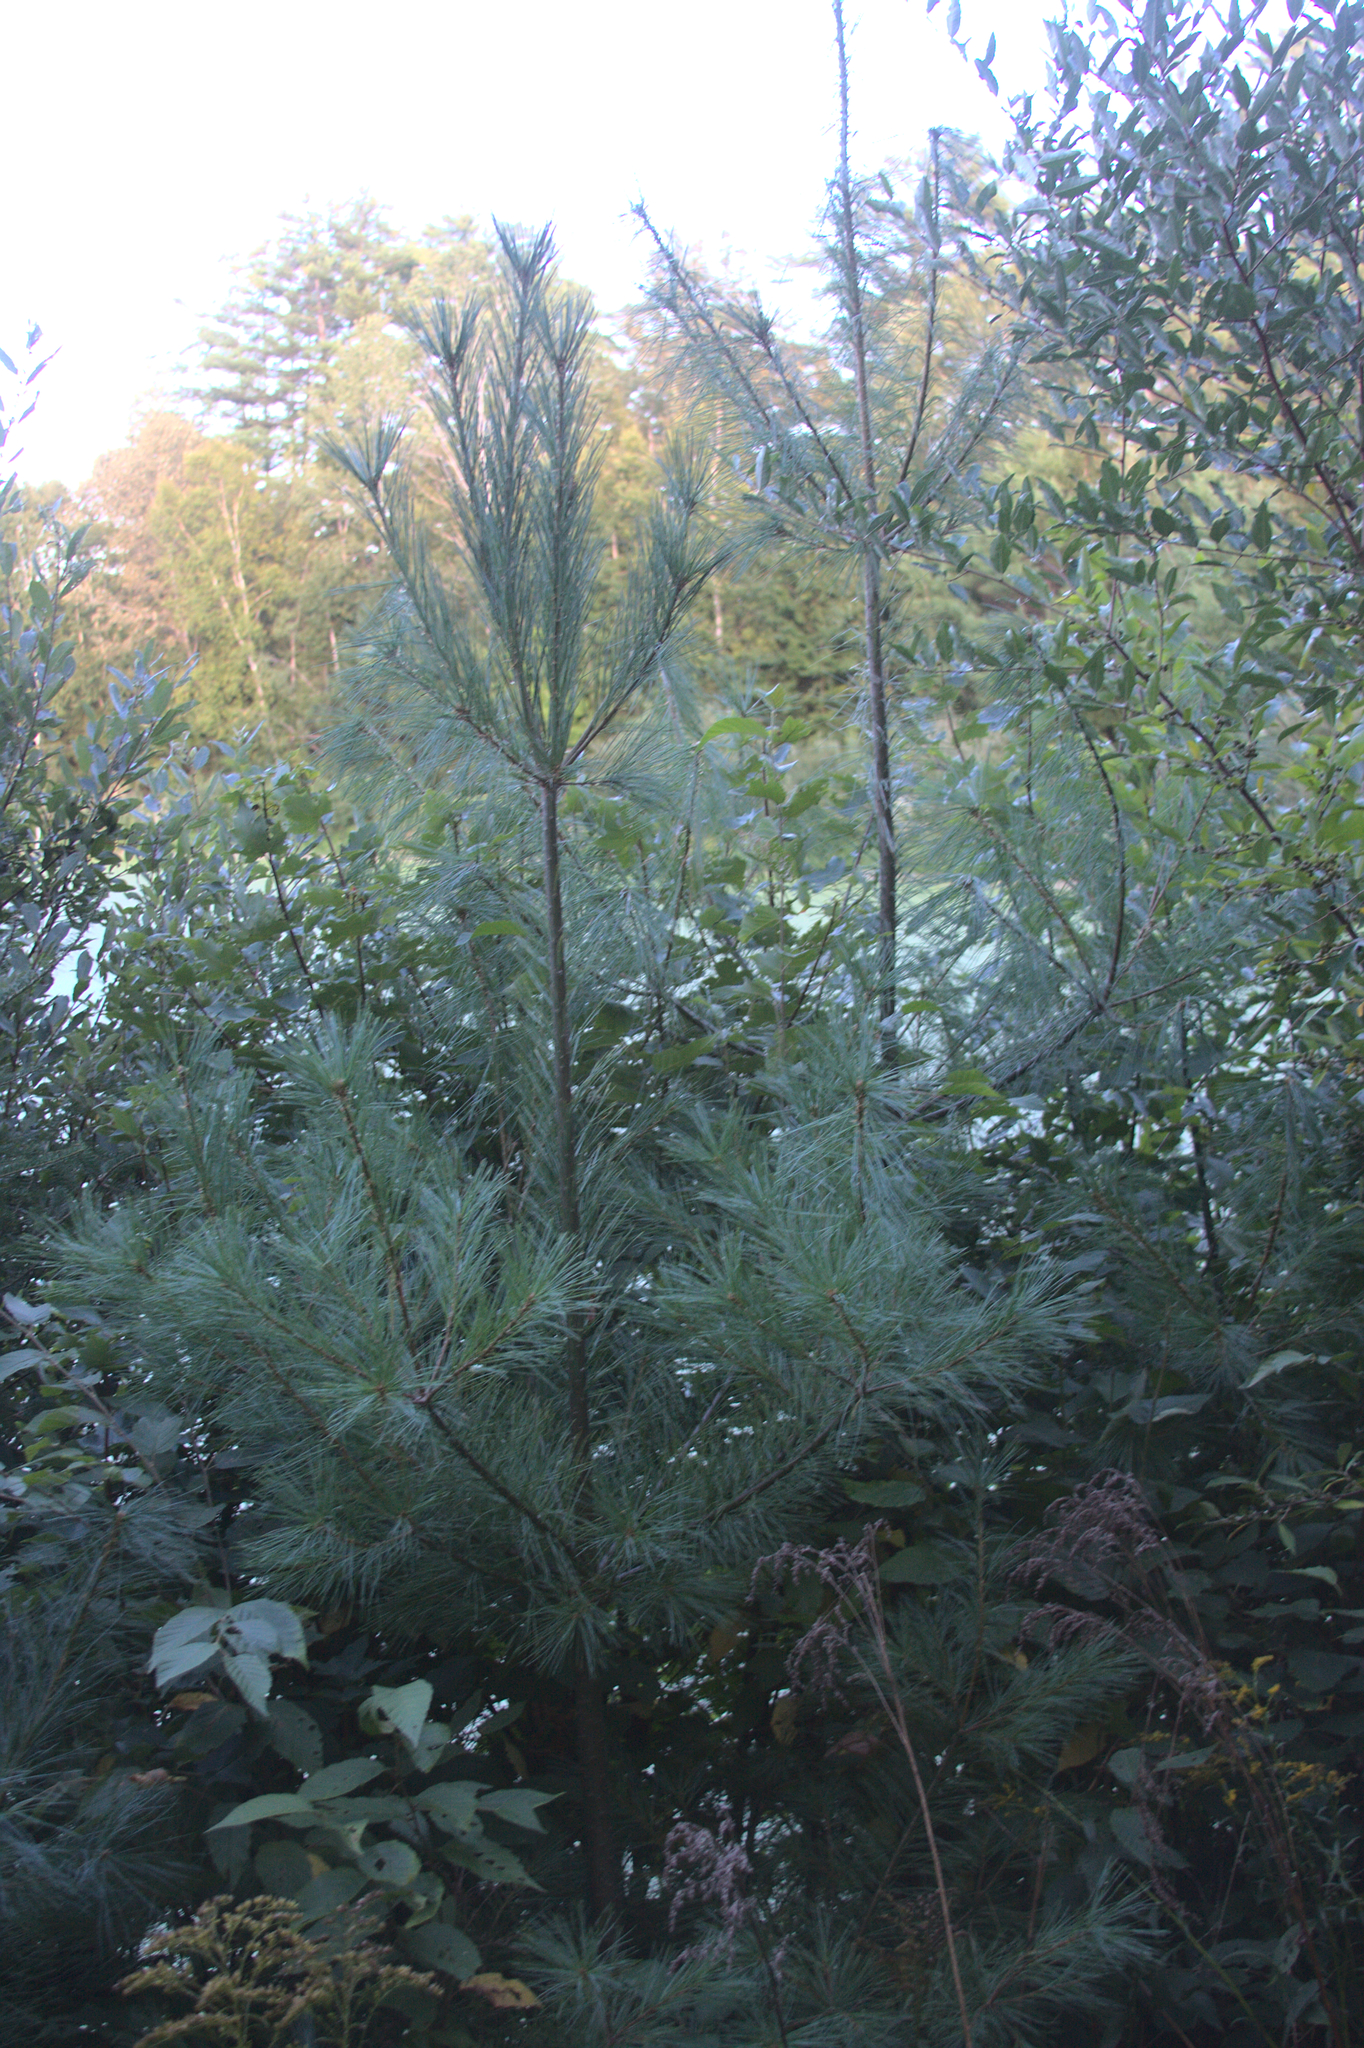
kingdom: Plantae
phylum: Tracheophyta
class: Pinopsida
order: Pinales
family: Pinaceae
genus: Pinus
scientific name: Pinus strobus
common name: Weymouth pine
